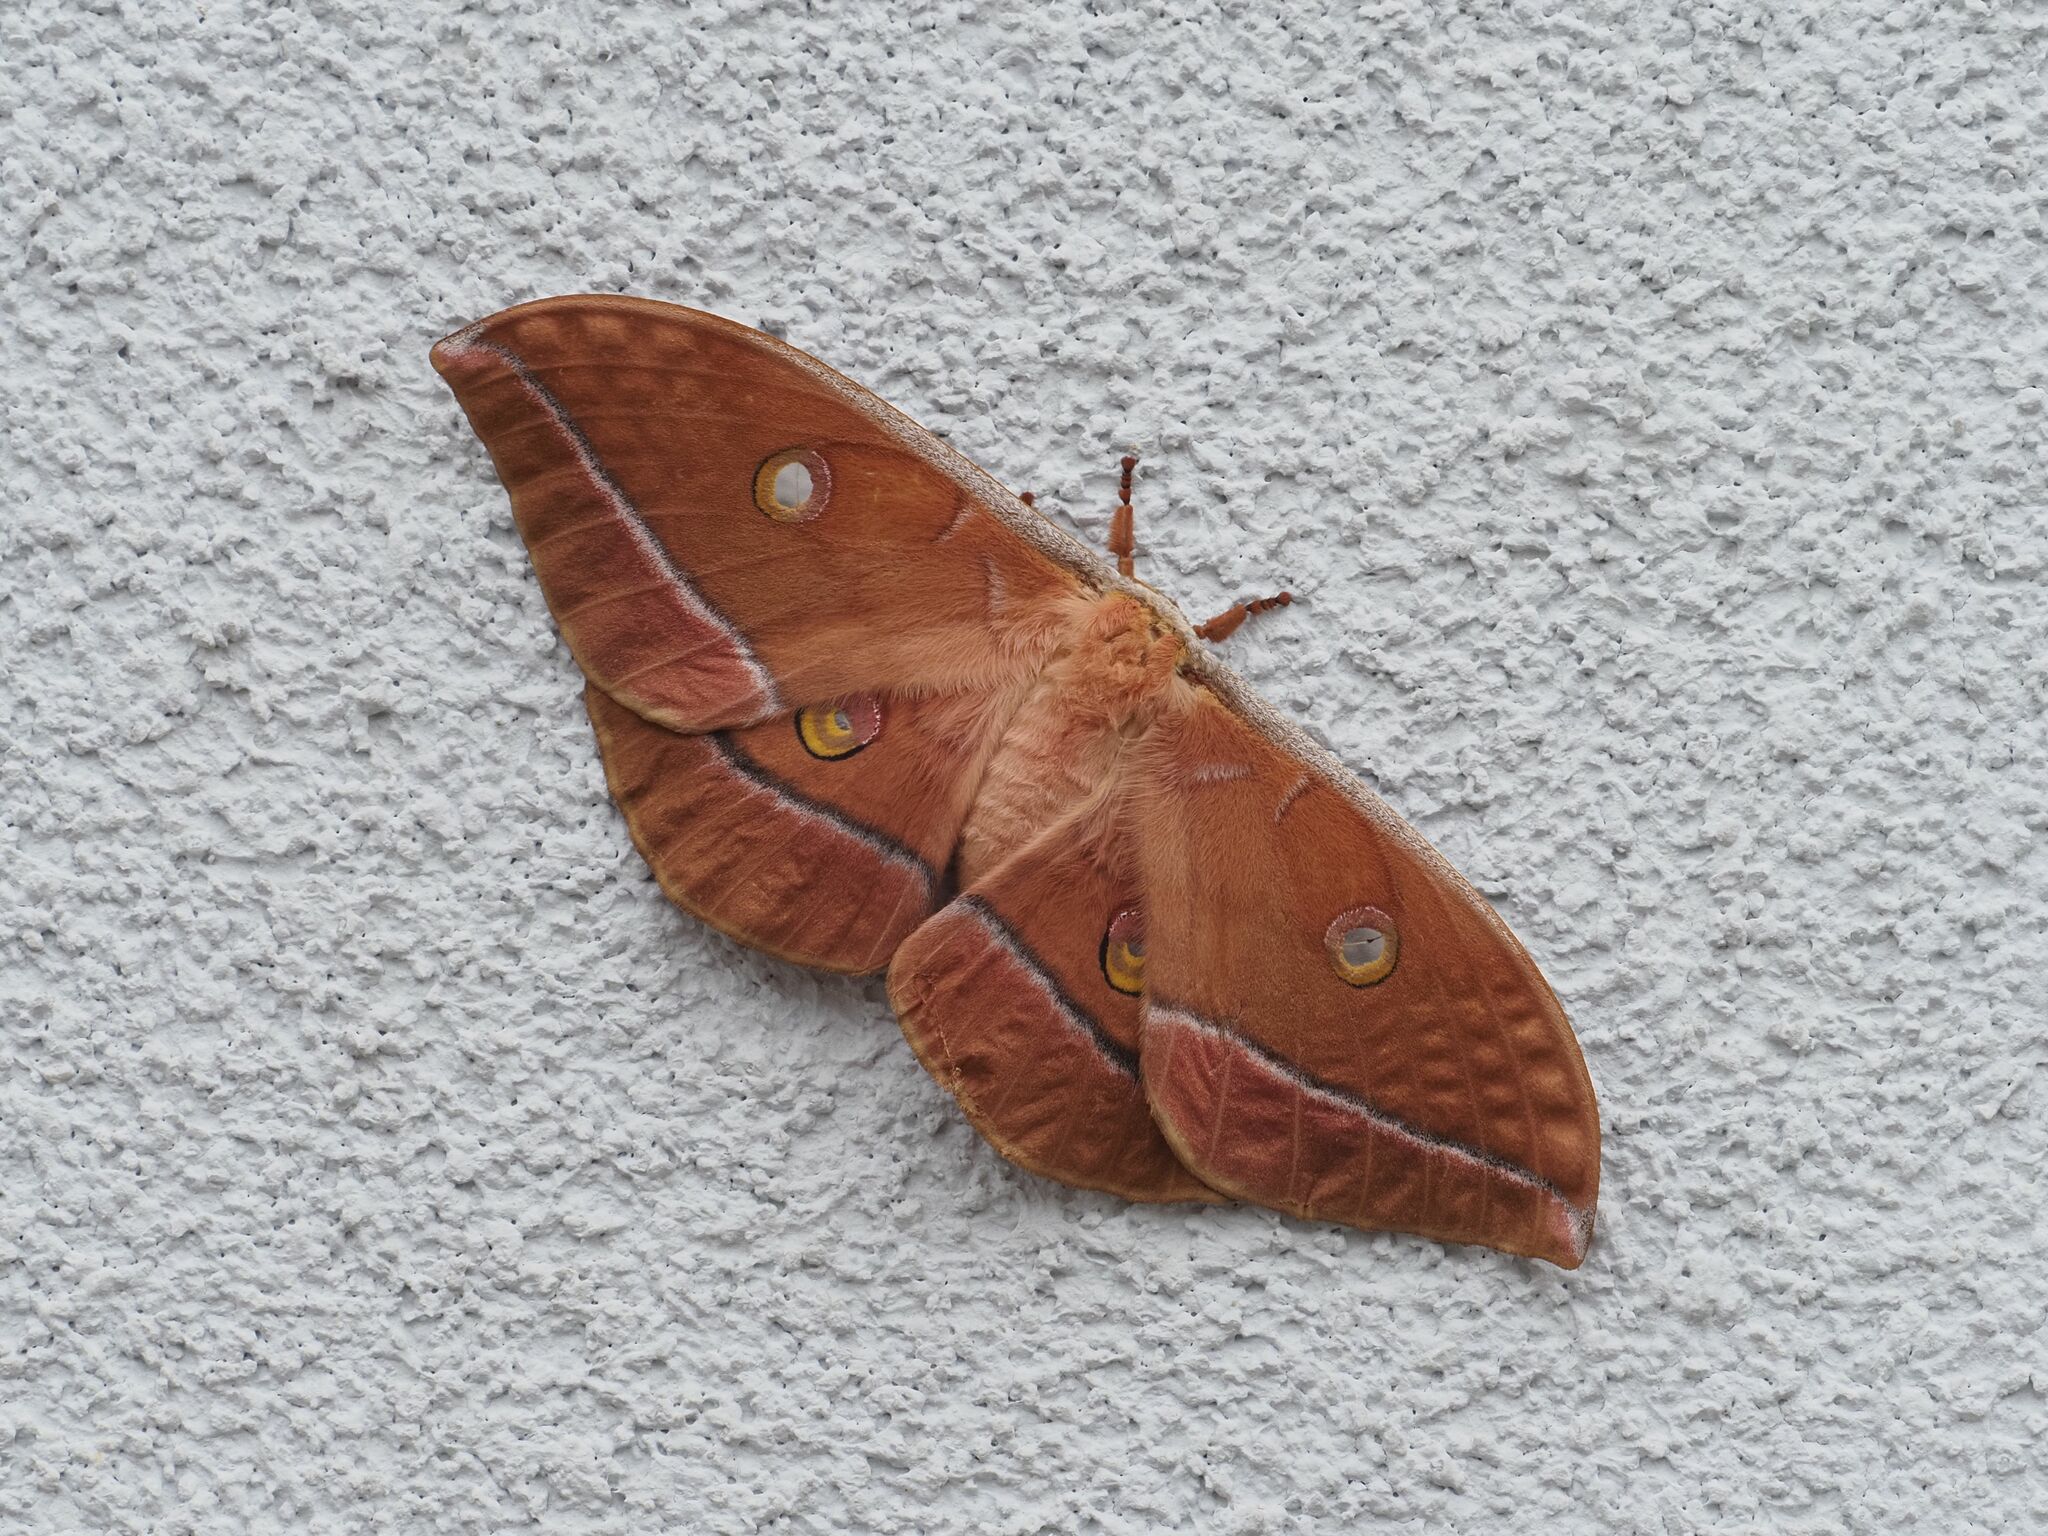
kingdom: Animalia
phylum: Arthropoda
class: Insecta
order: Lepidoptera
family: Saturniidae
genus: Antheraea
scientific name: Antheraea yamamai
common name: Japanese oak silk moth
